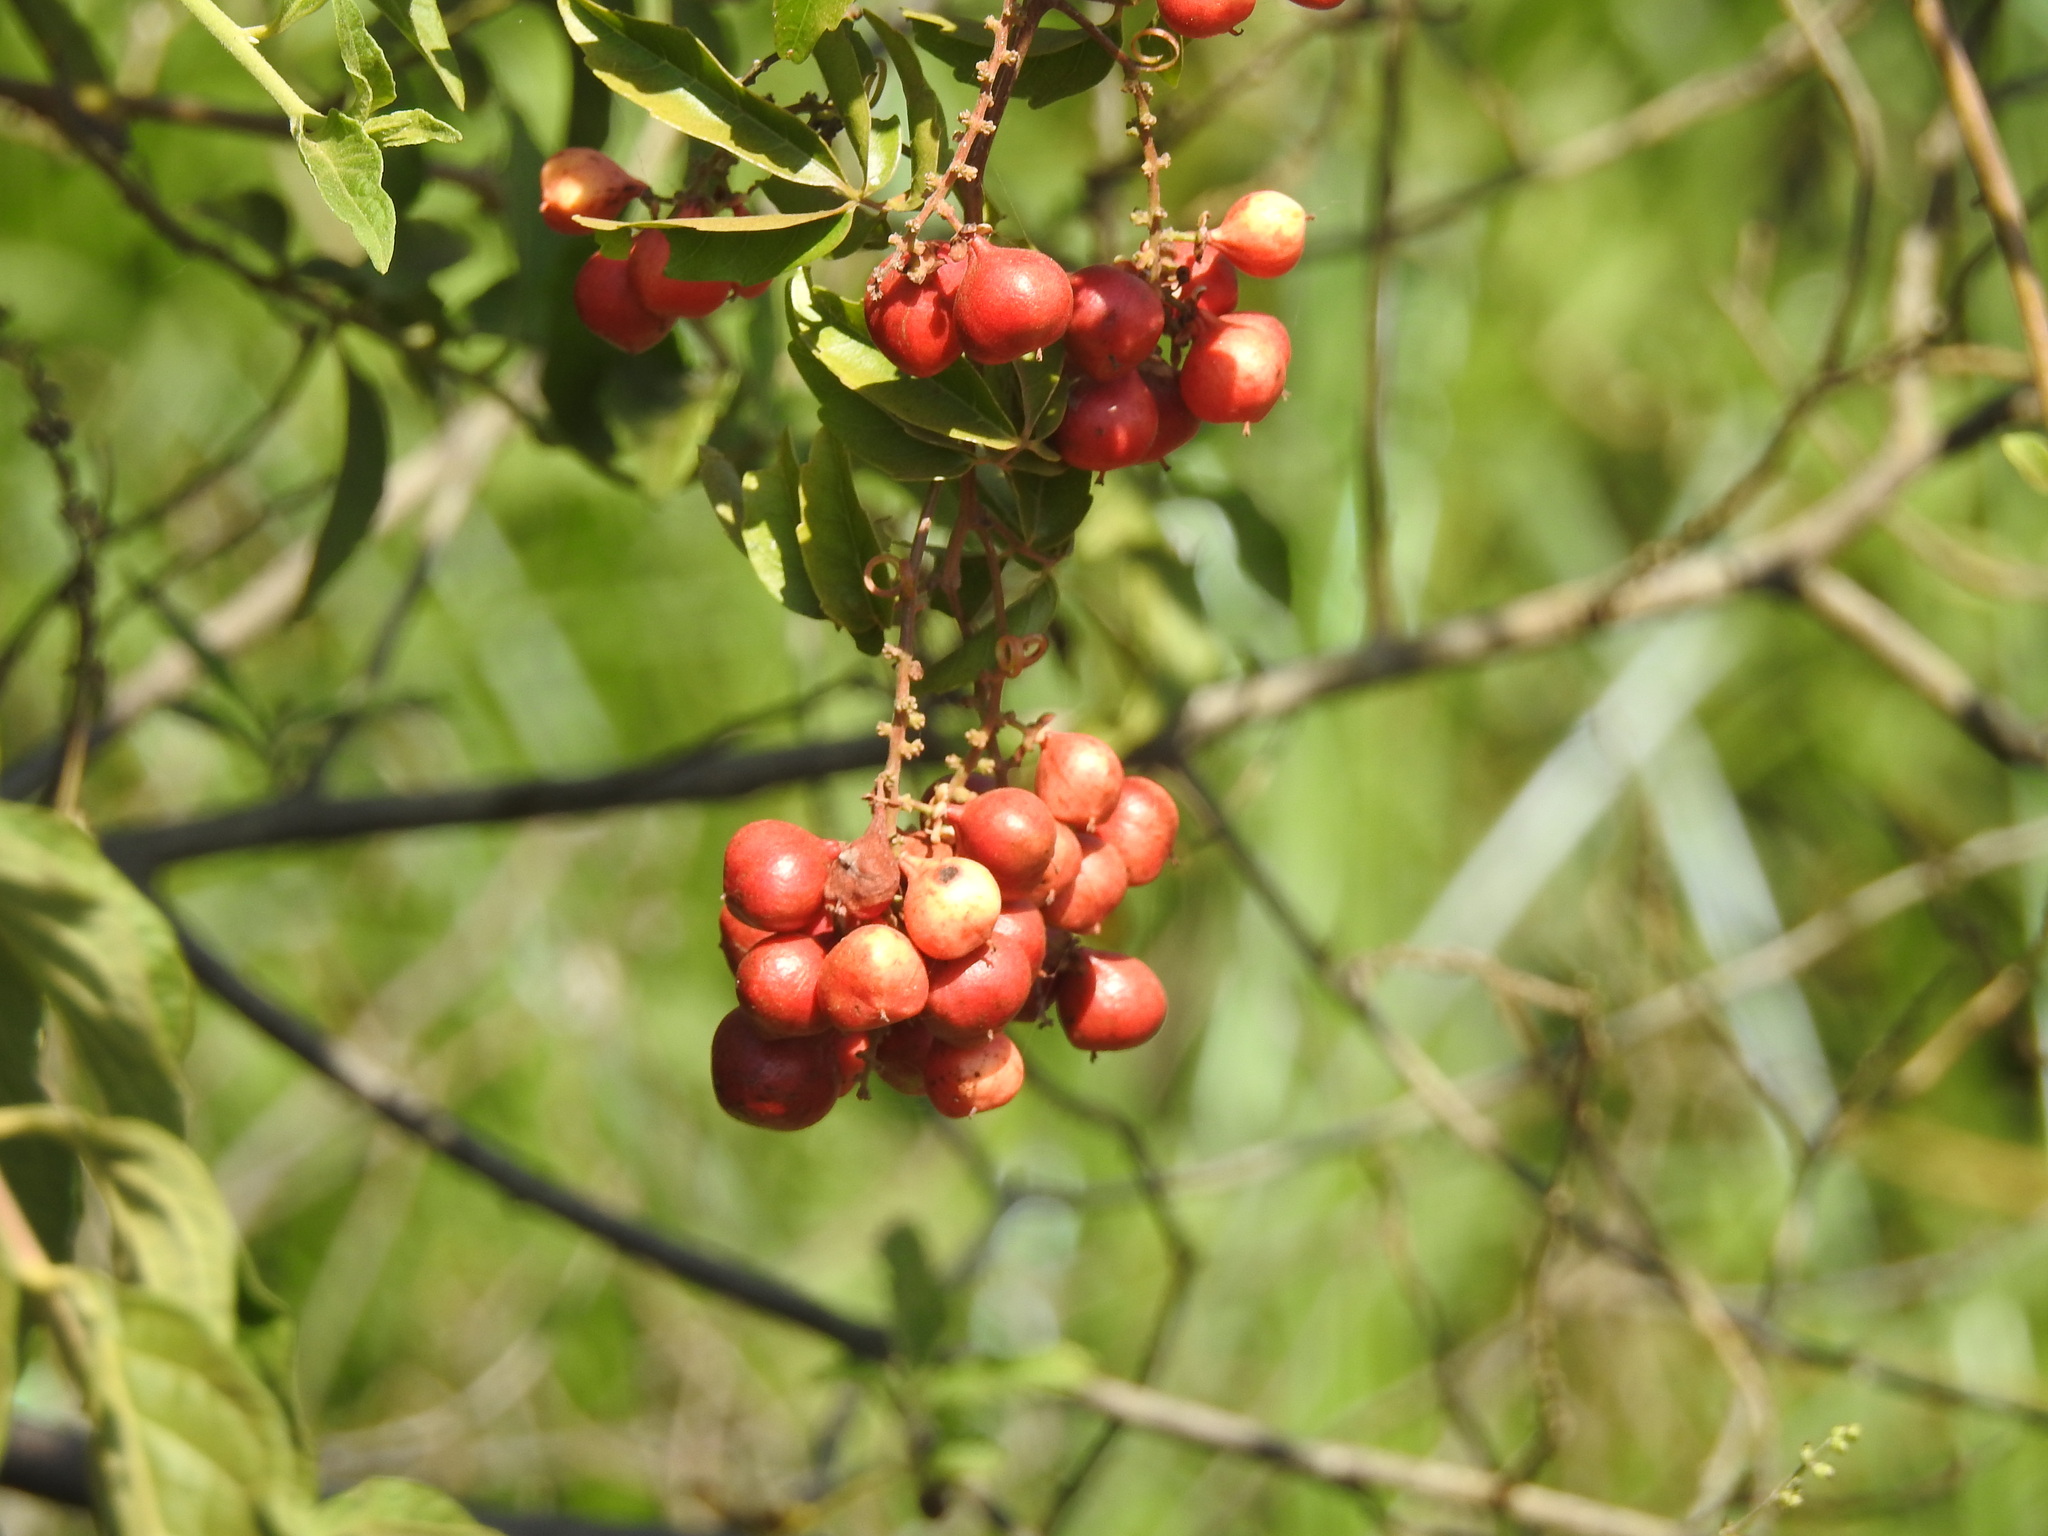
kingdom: Plantae
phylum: Tracheophyta
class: Magnoliopsida
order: Sapindales
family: Sapindaceae
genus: Paullinia
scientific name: Paullinia elegans
